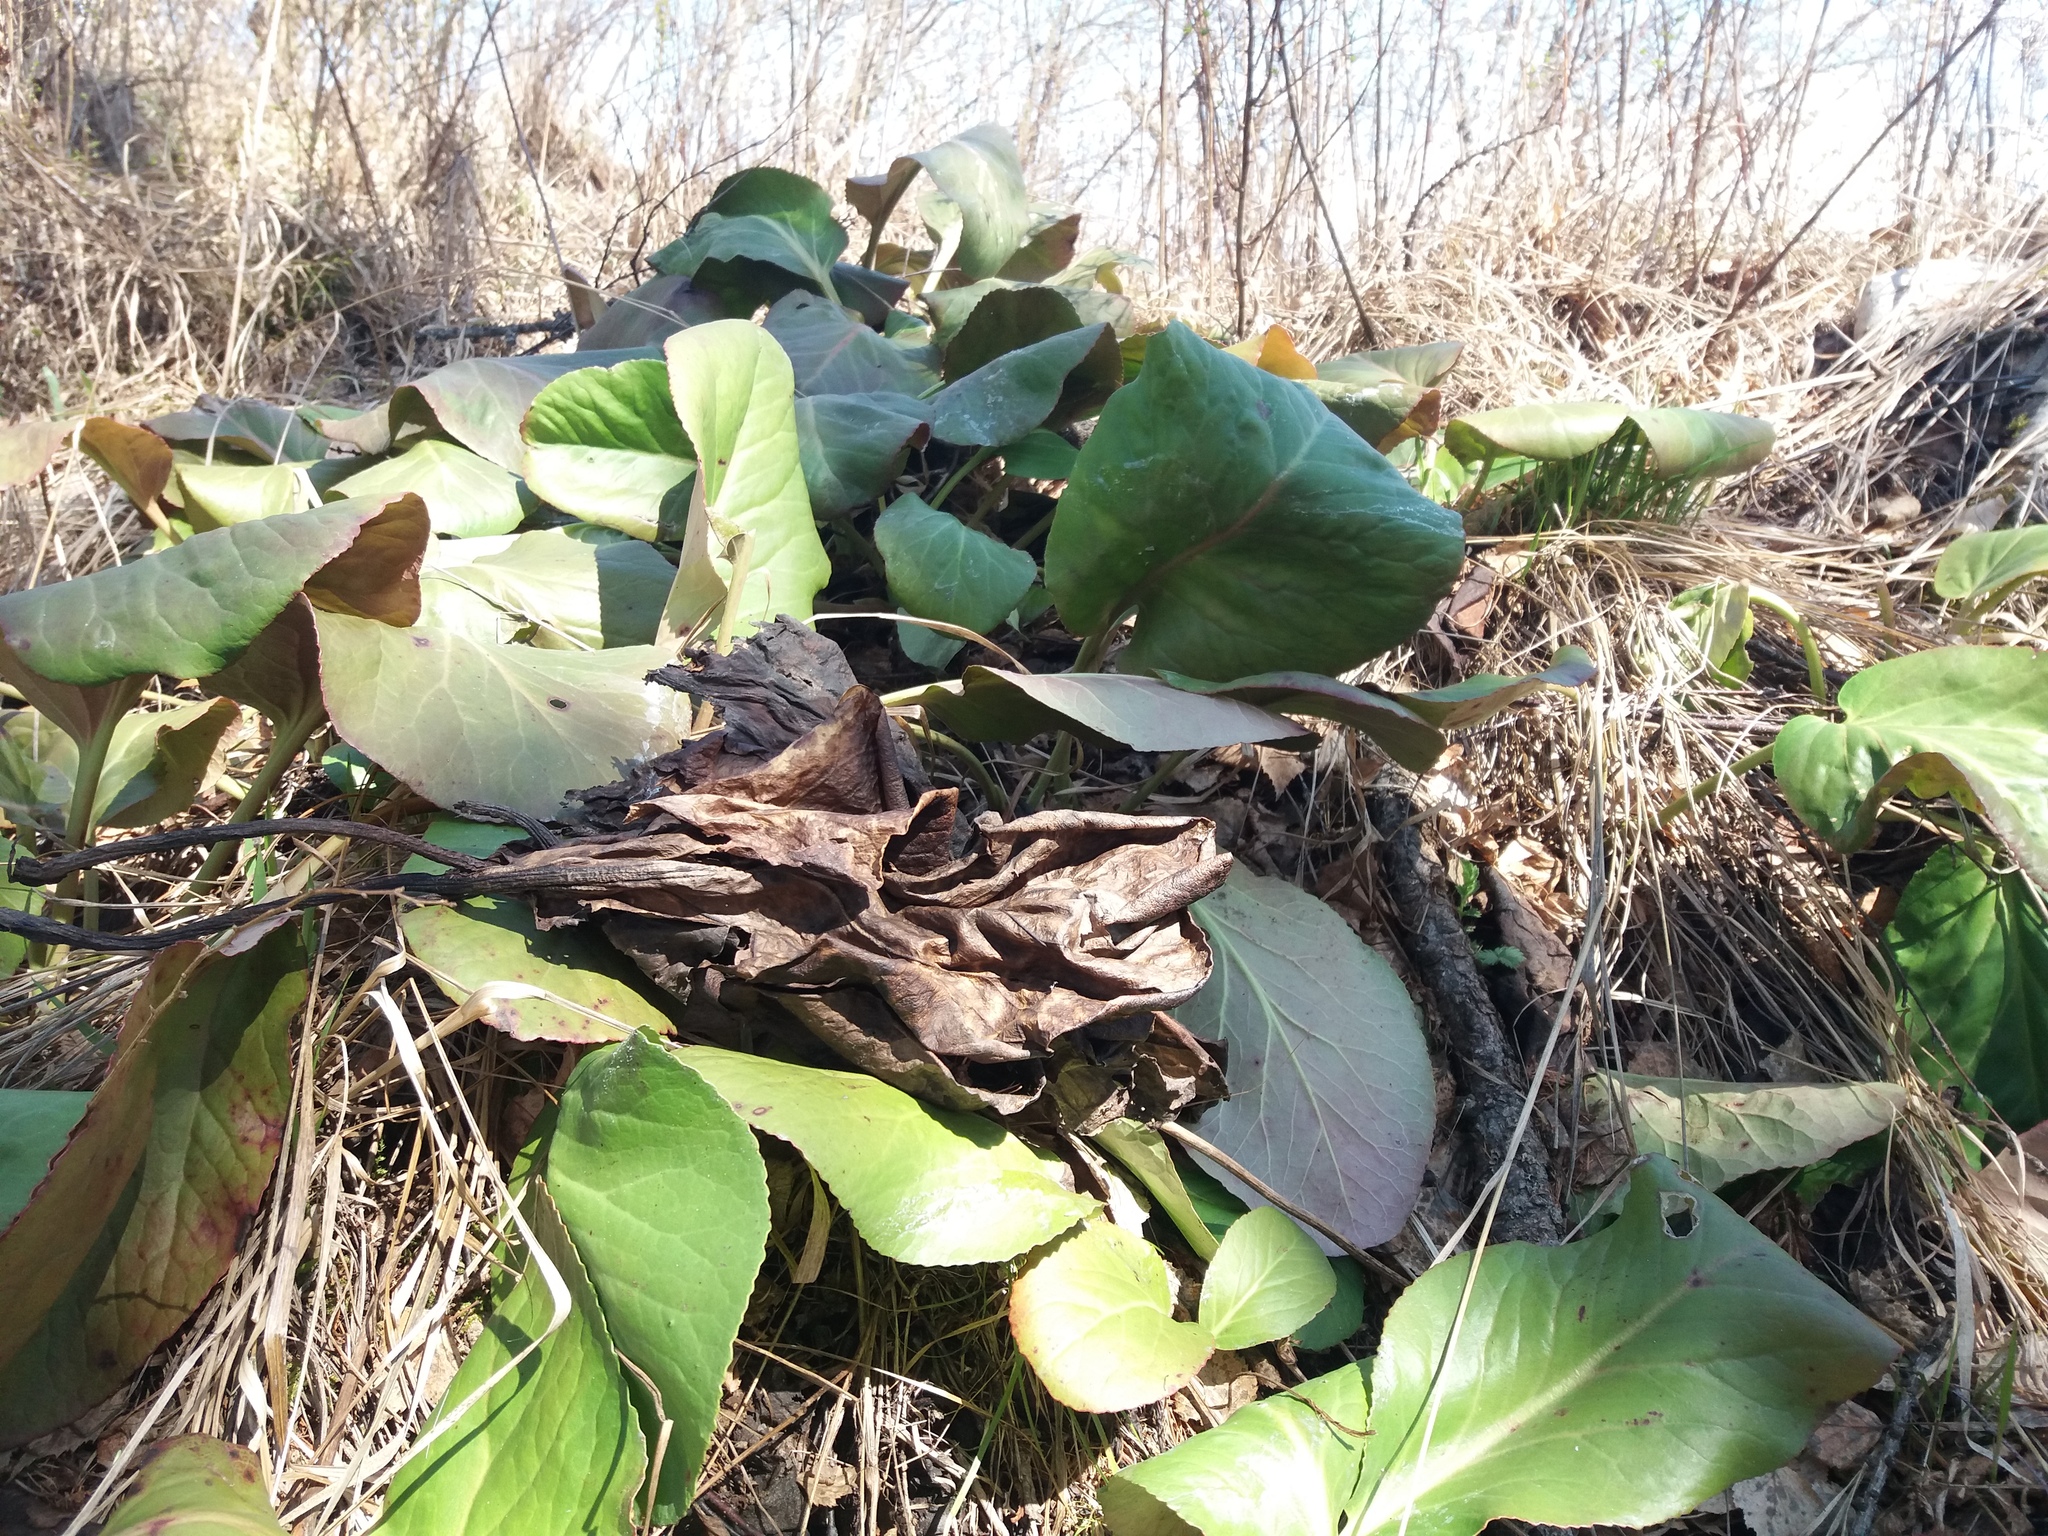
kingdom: Plantae
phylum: Tracheophyta
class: Magnoliopsida
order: Saxifragales
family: Saxifragaceae
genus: Bergenia
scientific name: Bergenia crassifolia
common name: Elephant-ears
